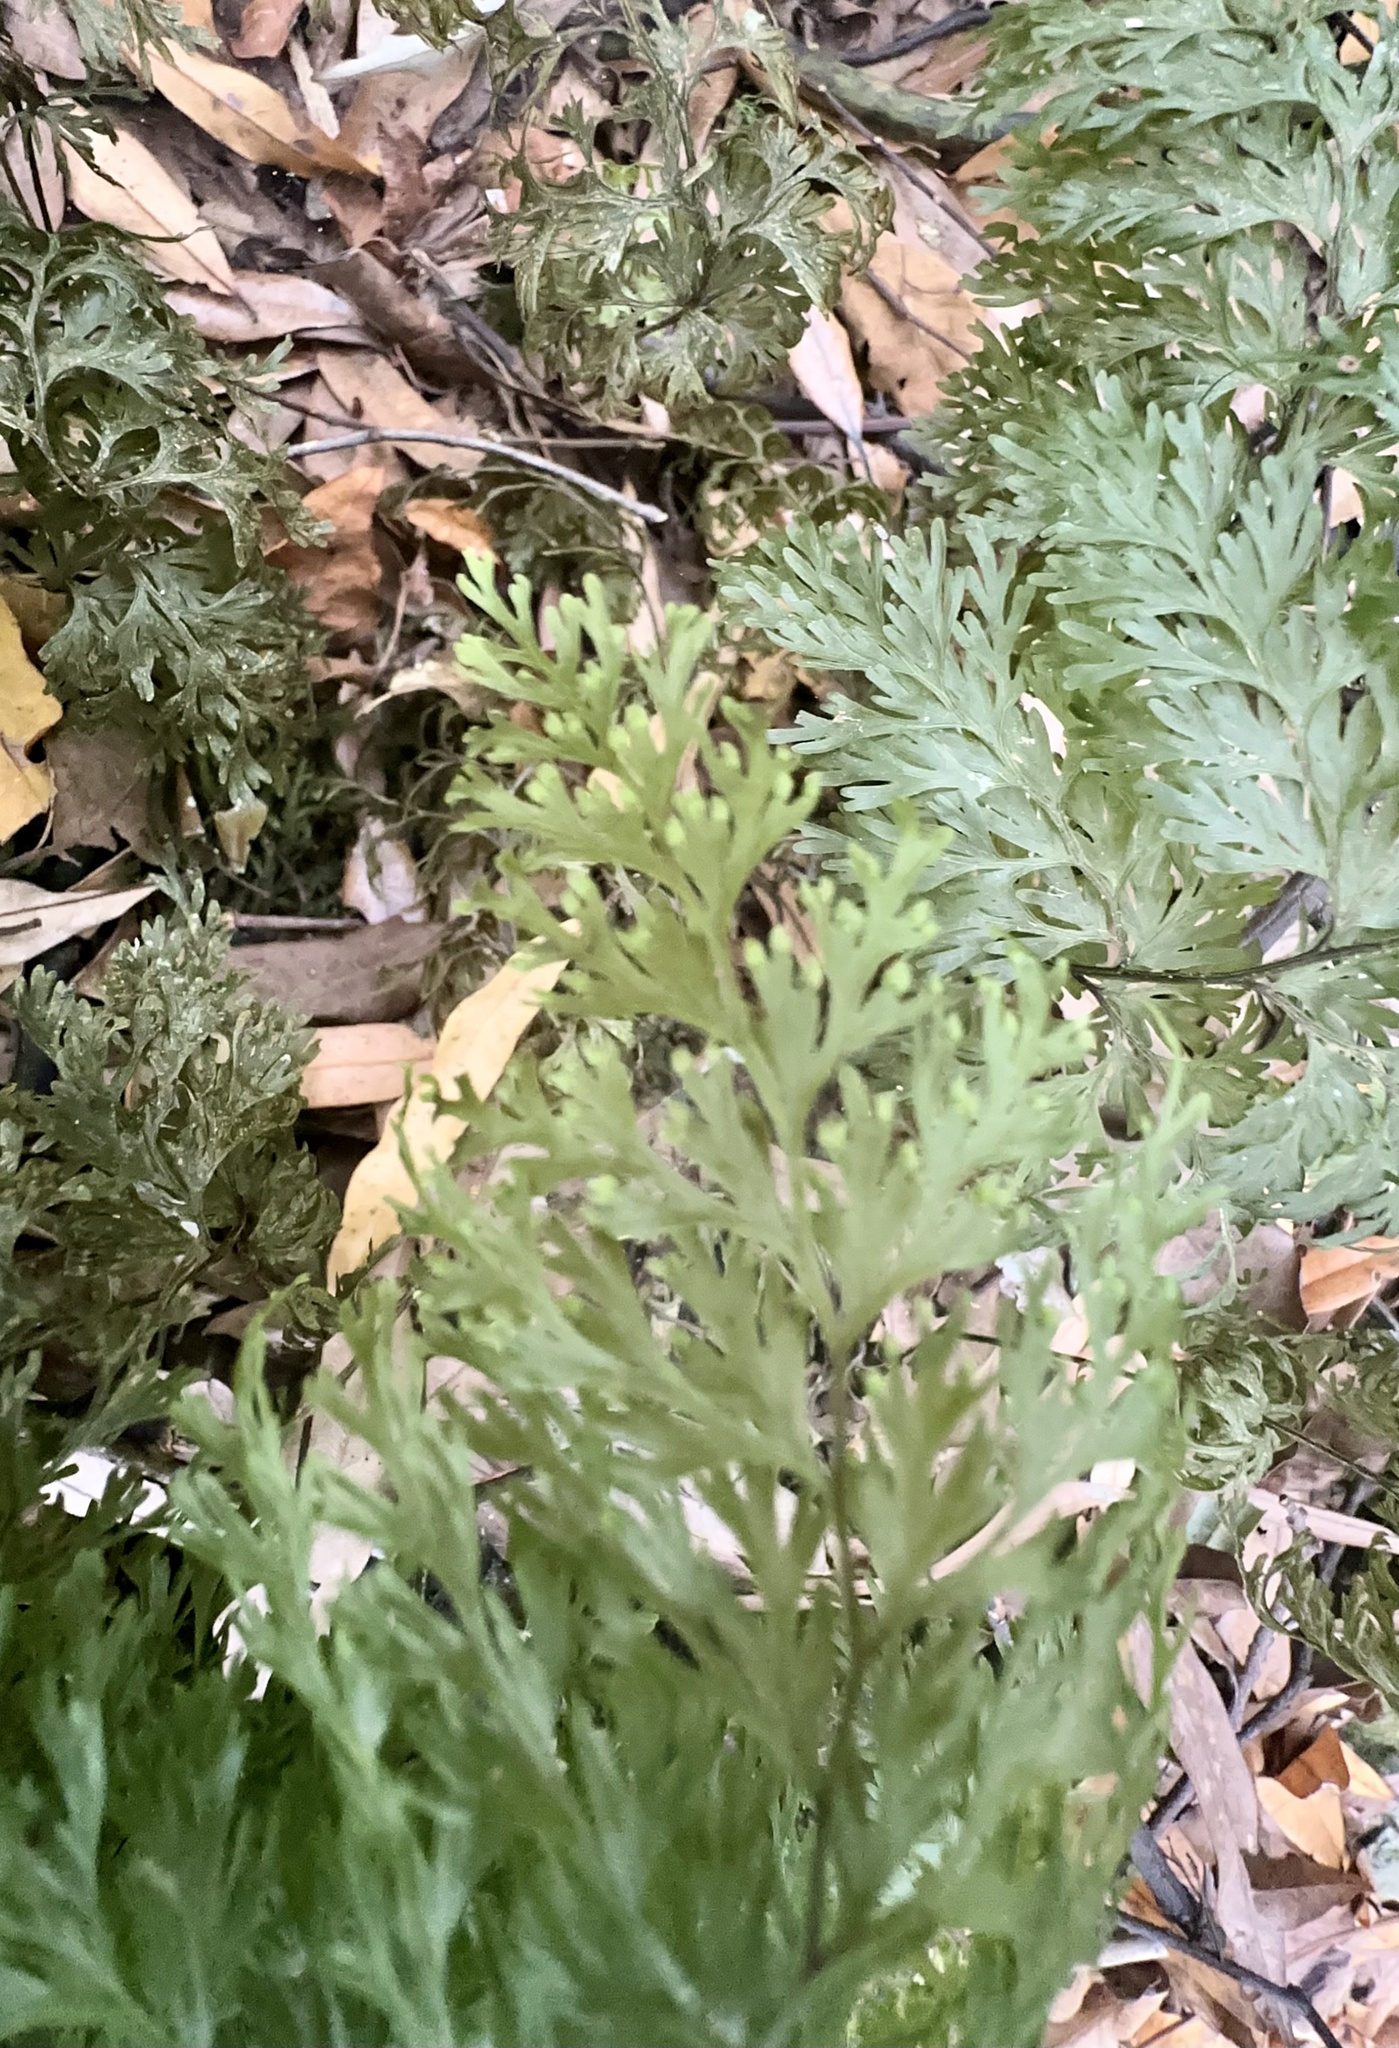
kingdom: Plantae
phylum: Tracheophyta
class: Polypodiopsida
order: Hymenophyllales
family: Hymenophyllaceae
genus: Hymenophyllum
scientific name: Hymenophyllum demissum
